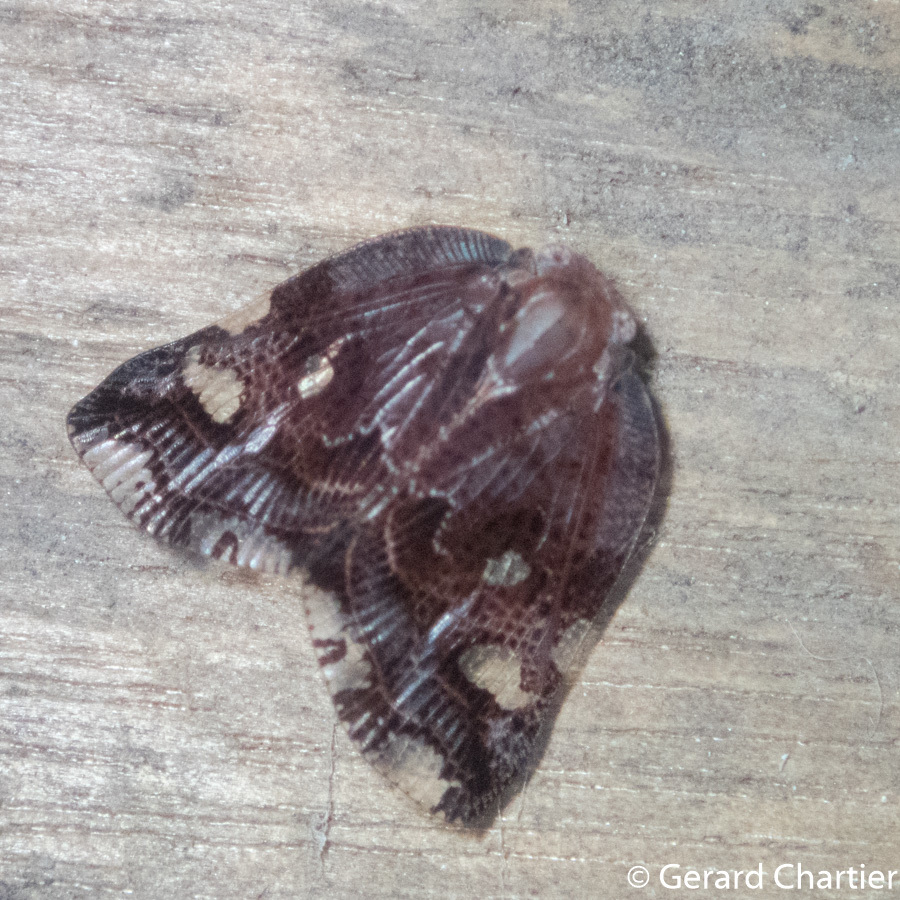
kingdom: Animalia
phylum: Arthropoda
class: Insecta
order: Hemiptera
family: Ricaniidae
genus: Ricania
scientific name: Ricania speculum
